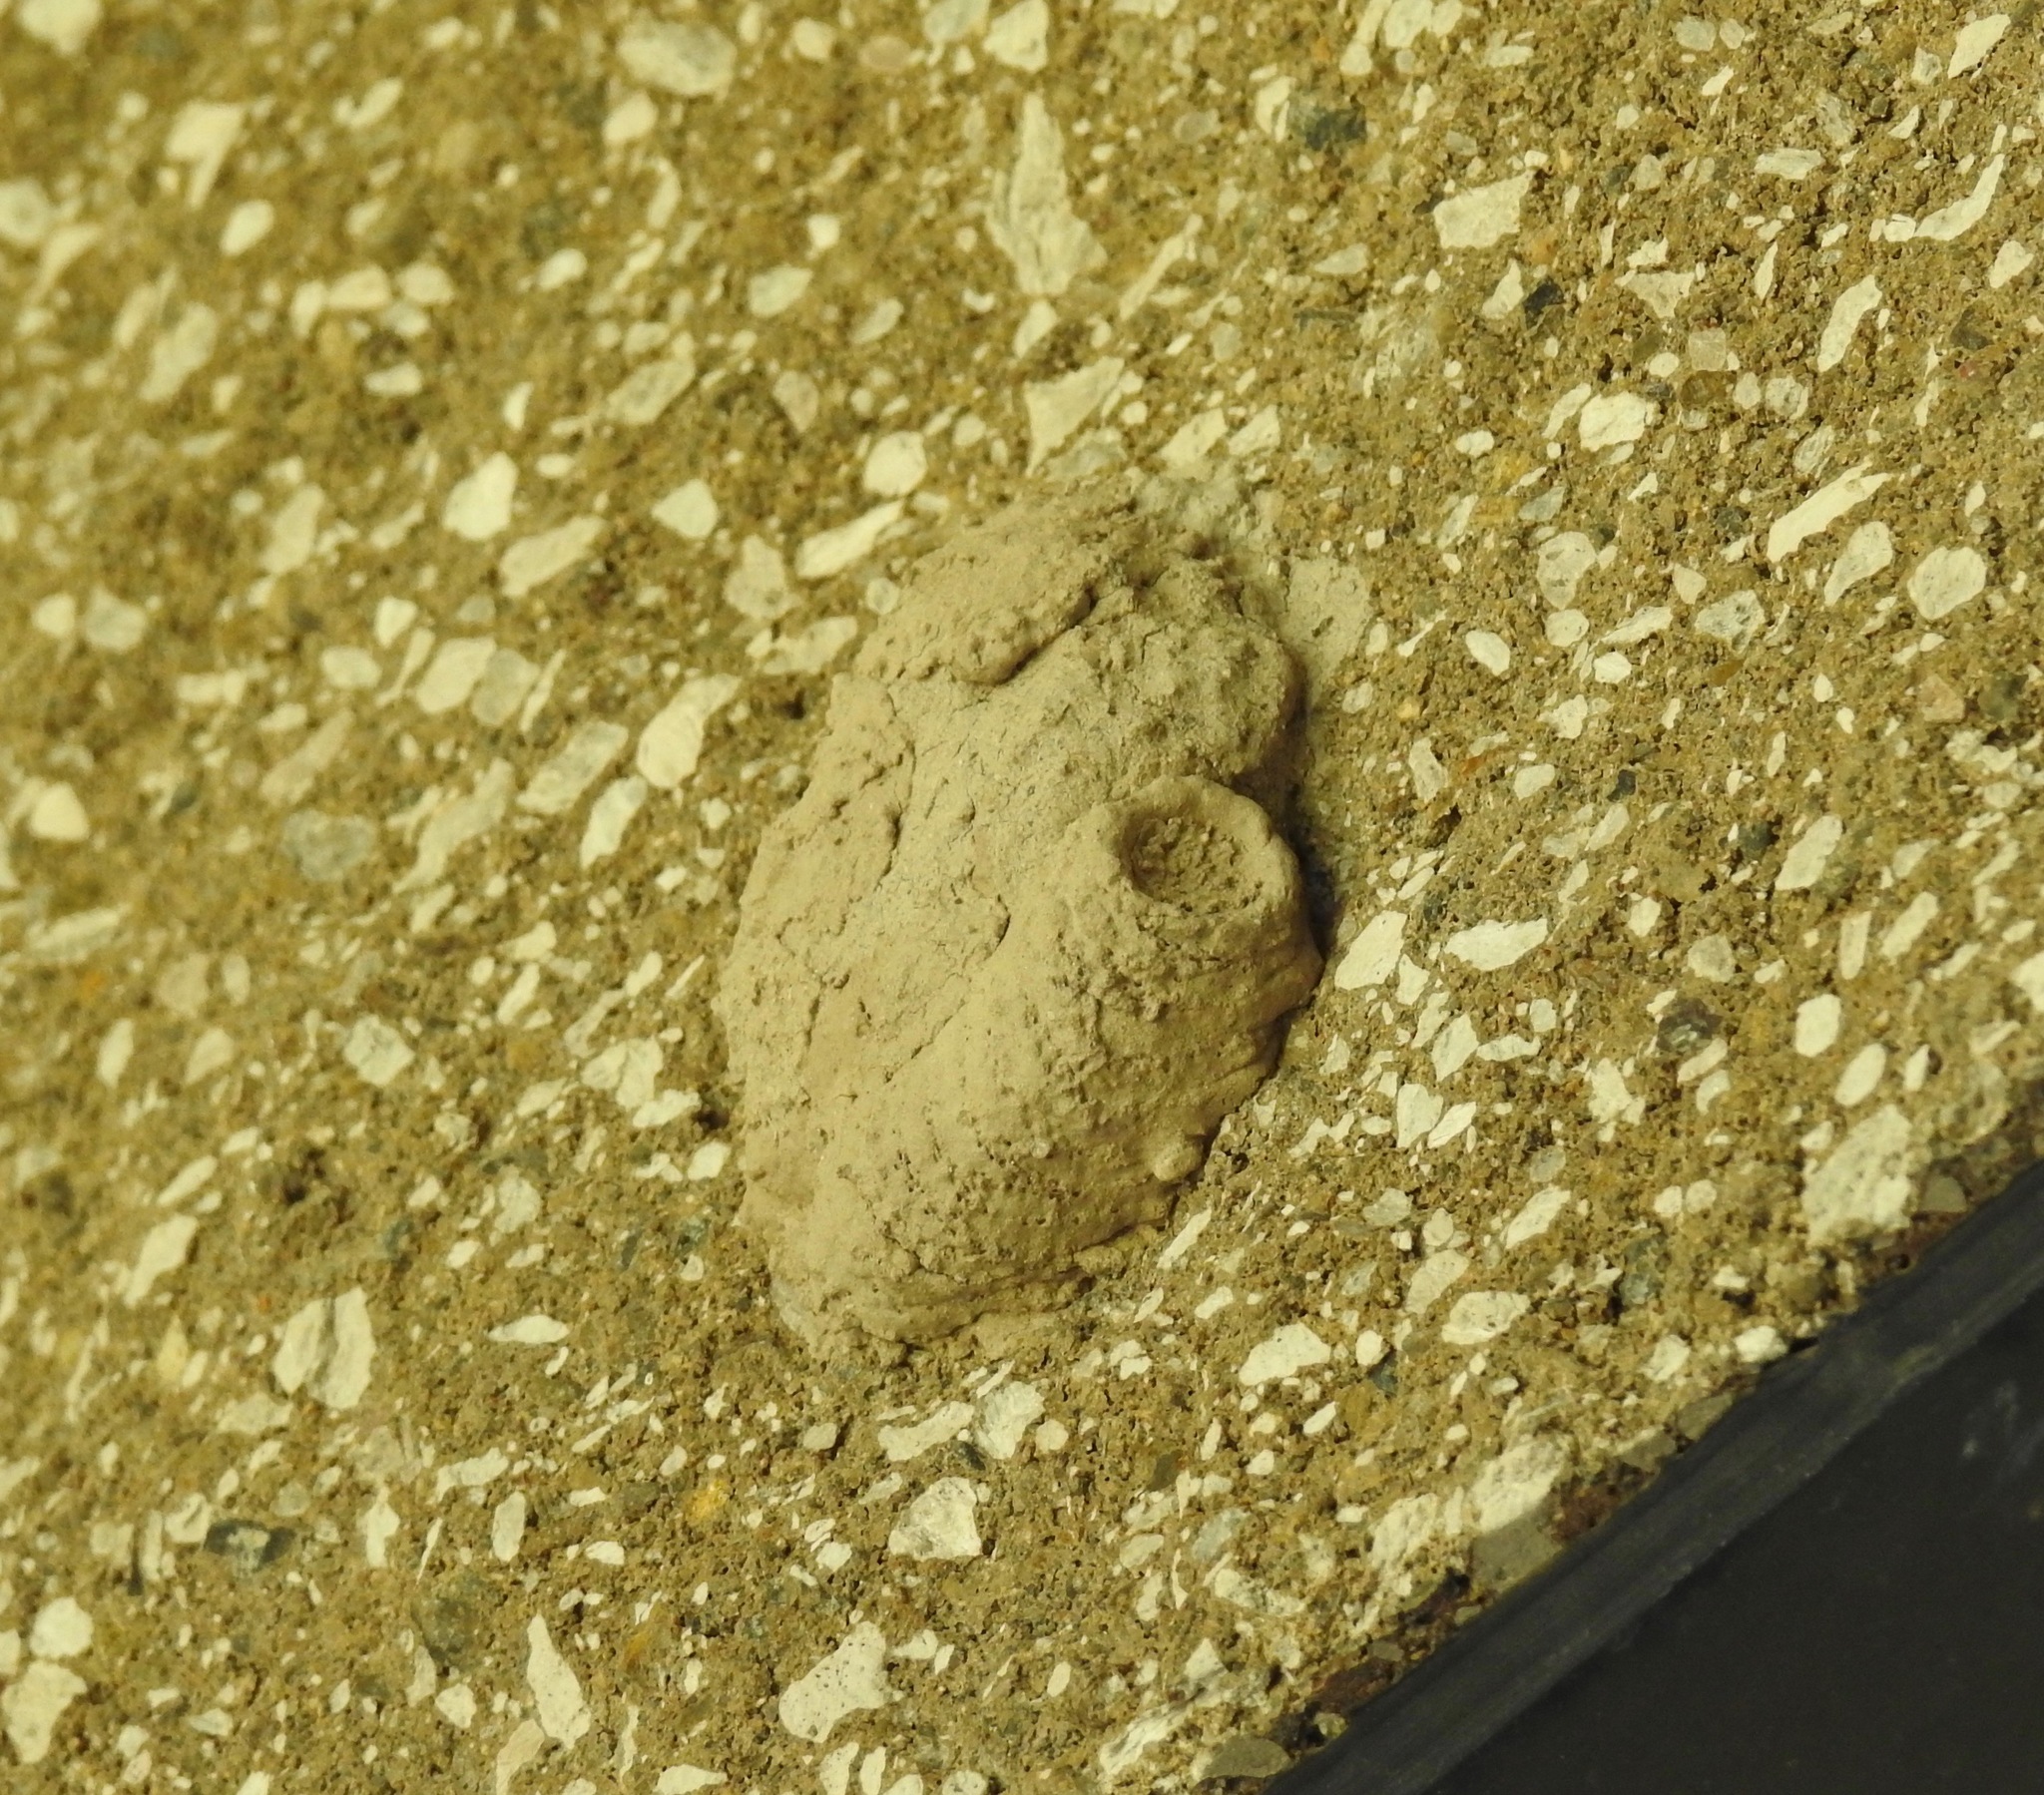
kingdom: Animalia
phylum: Arthropoda
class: Insecta
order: Hymenoptera
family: Sphecidae
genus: Sceliphron
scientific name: Sceliphron caementarium
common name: Mud dauber
